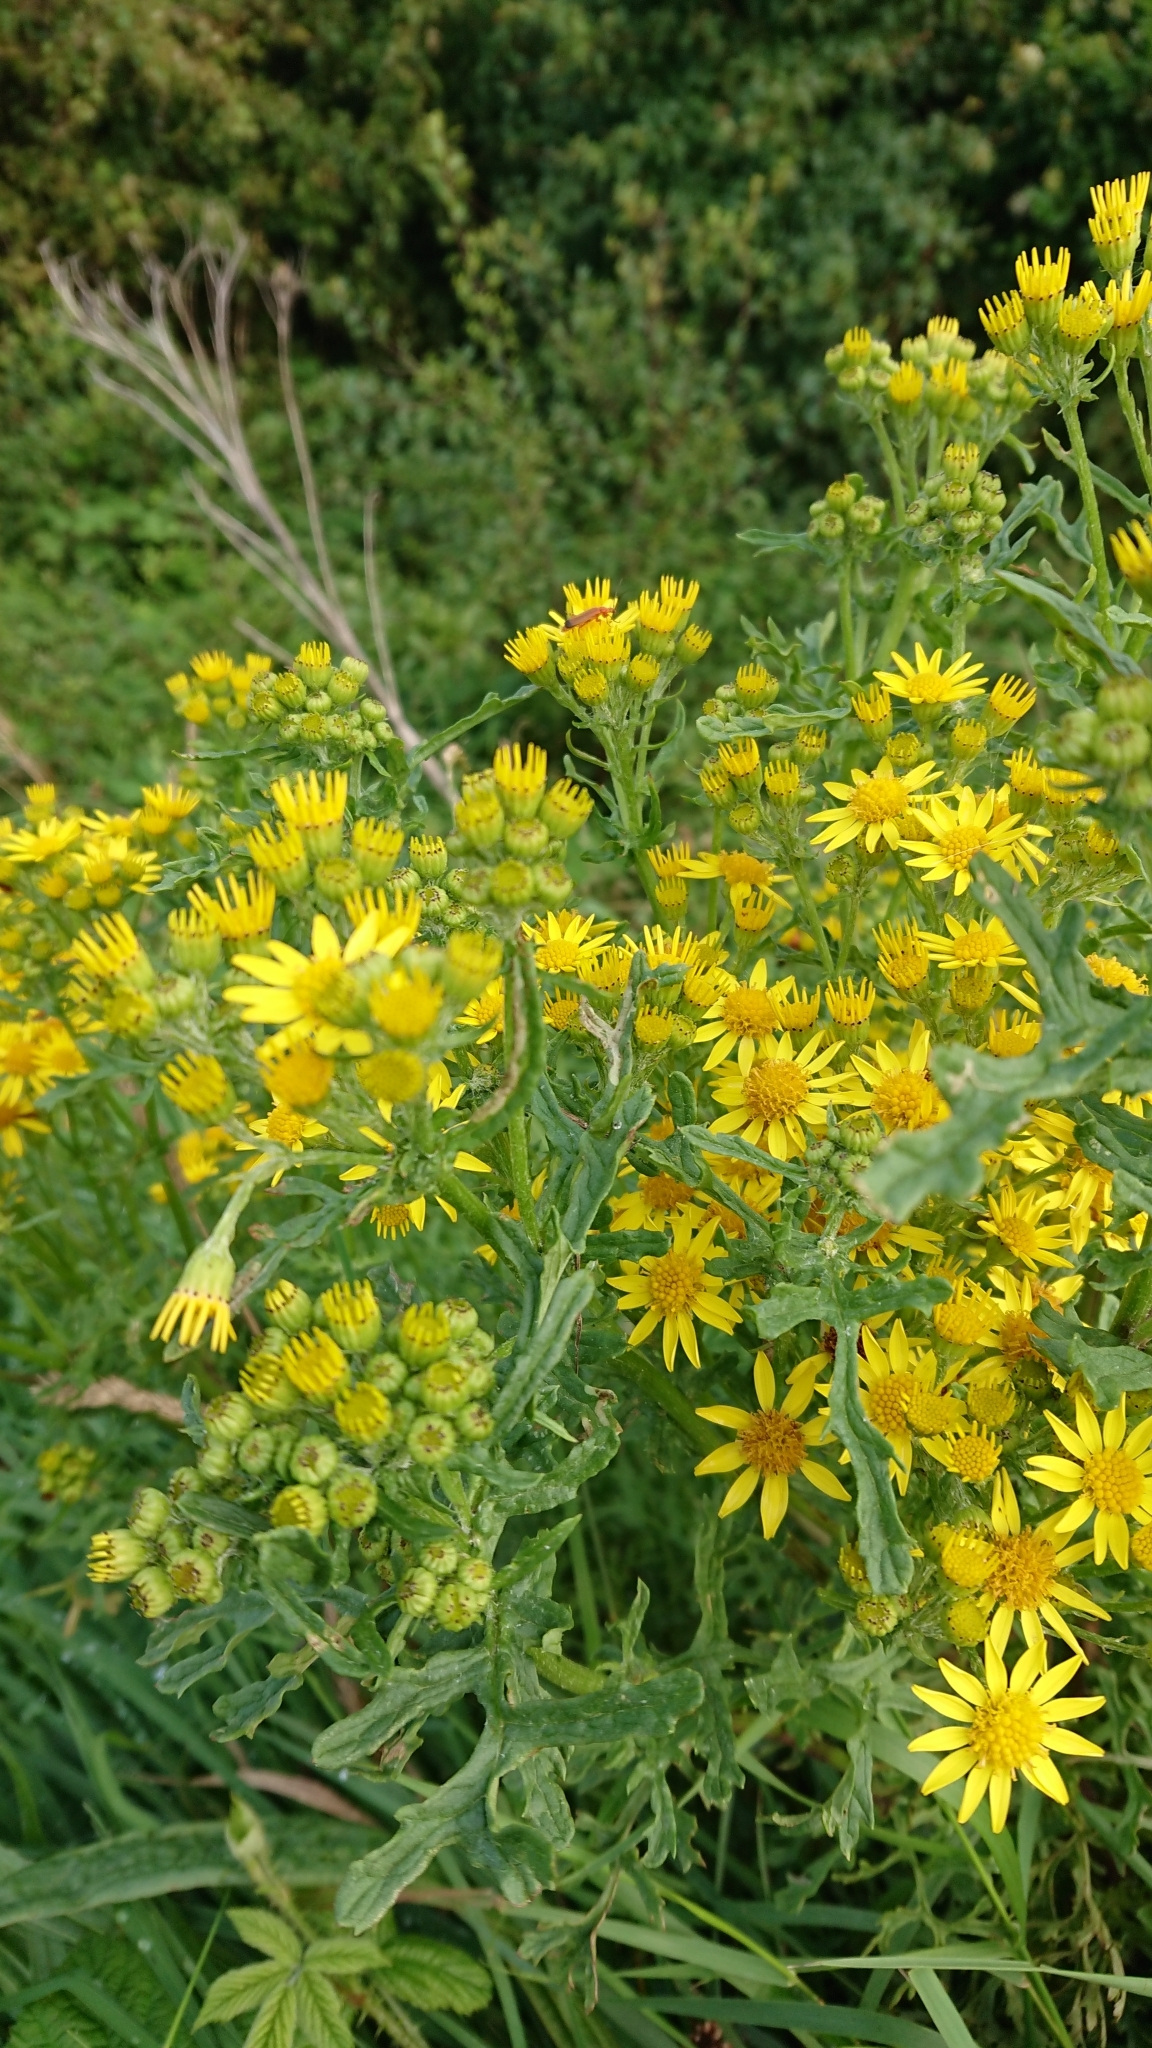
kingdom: Plantae
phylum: Tracheophyta
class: Magnoliopsida
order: Asterales
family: Asteraceae
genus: Jacobaea
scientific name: Jacobaea vulgaris
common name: Stinking willie
